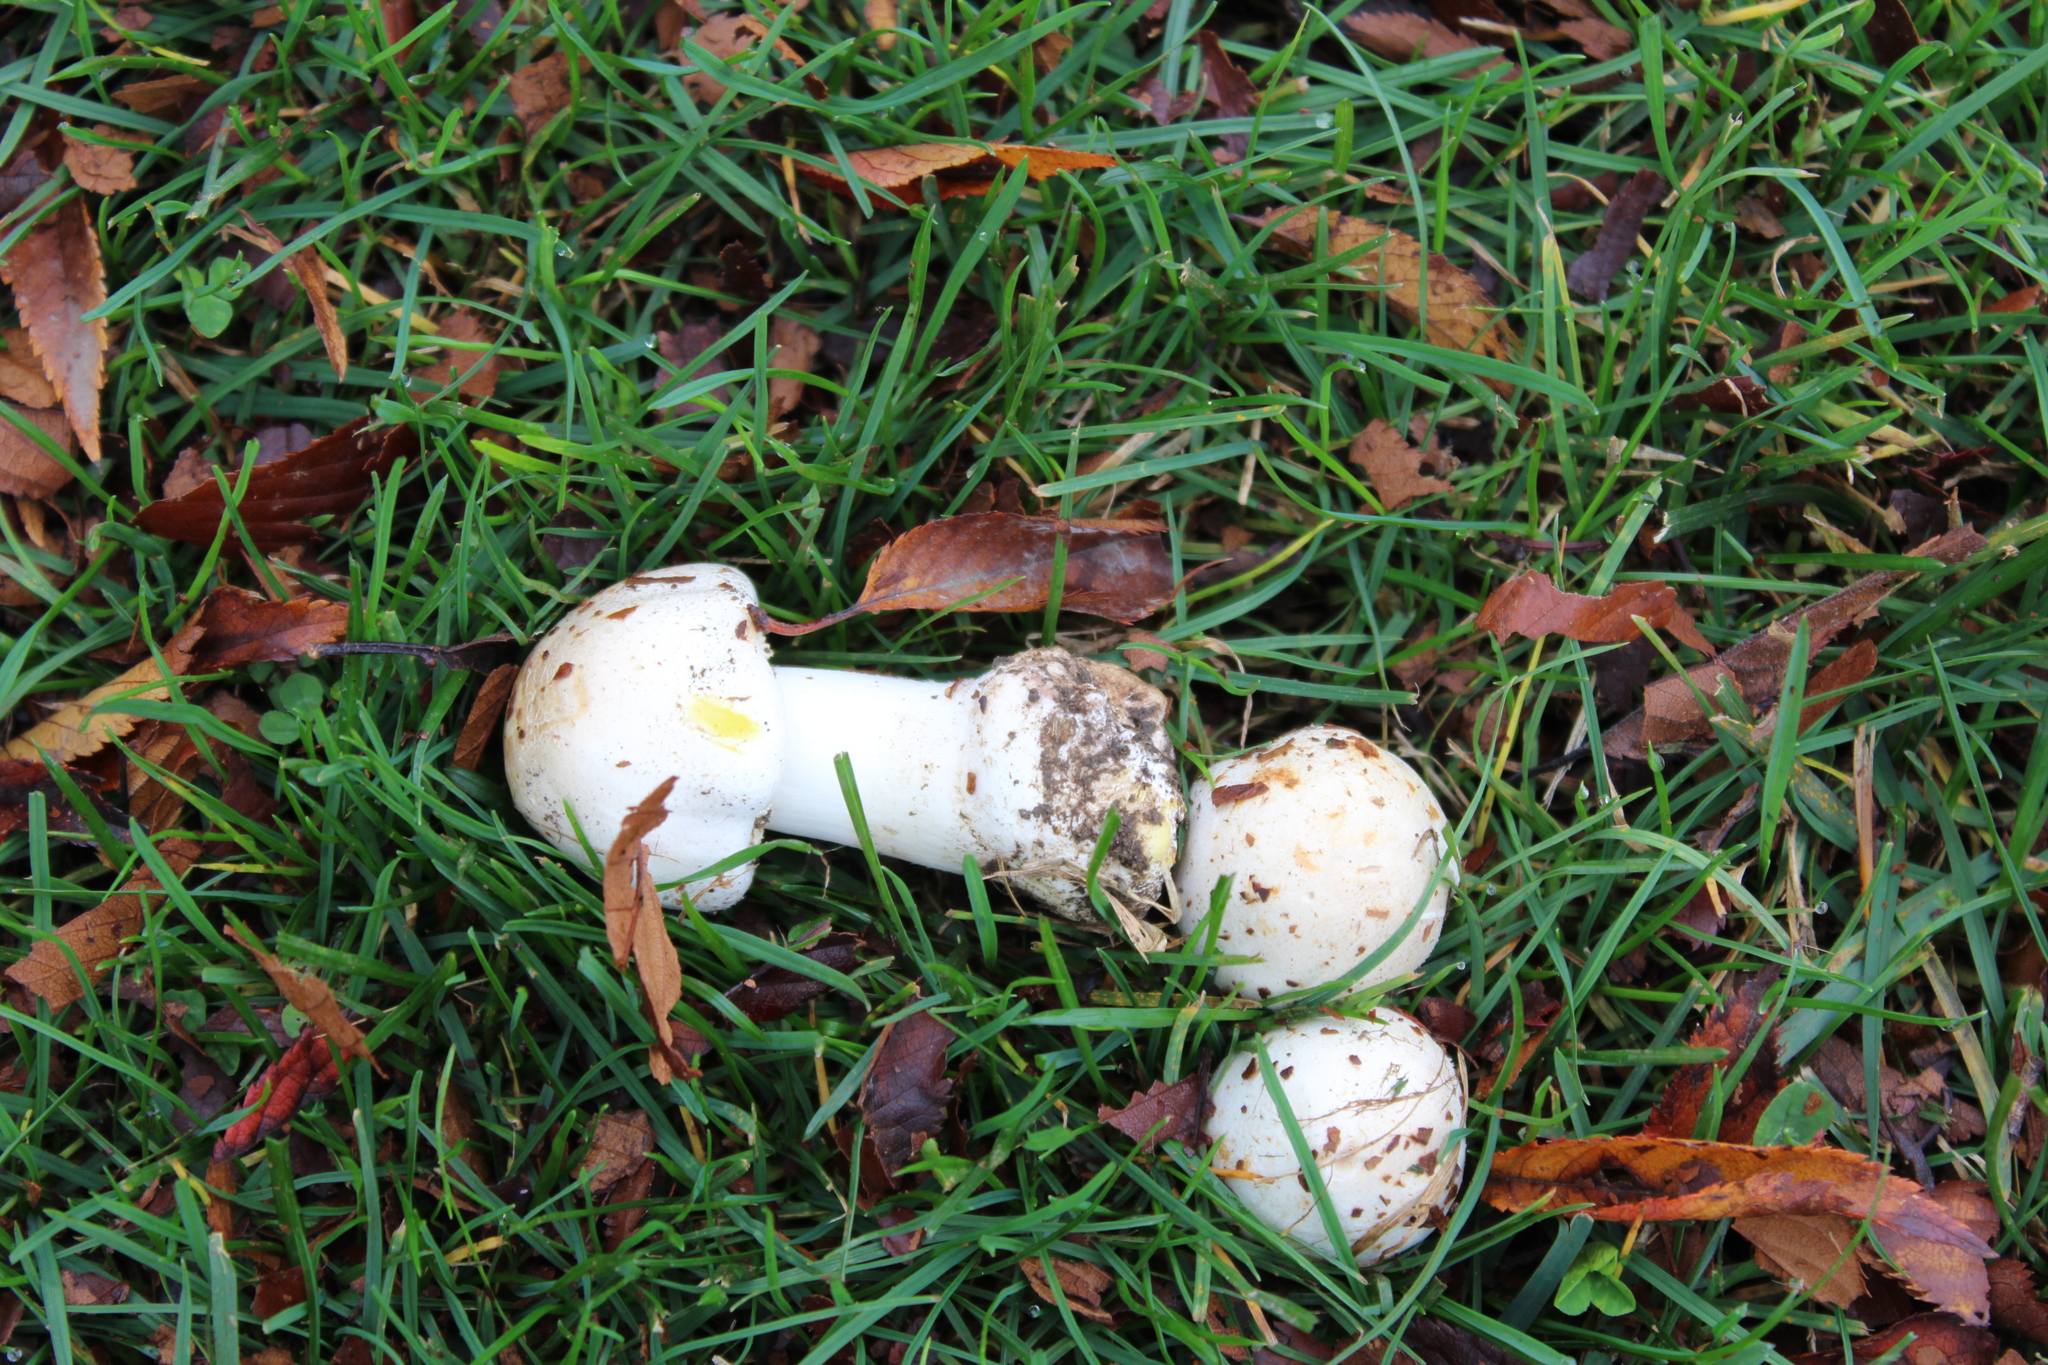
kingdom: Fungi
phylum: Basidiomycota
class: Agaricomycetes
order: Agaricales
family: Agaricaceae
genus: Agaricus
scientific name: Agaricus xanthodermus
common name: Yellow stainer
